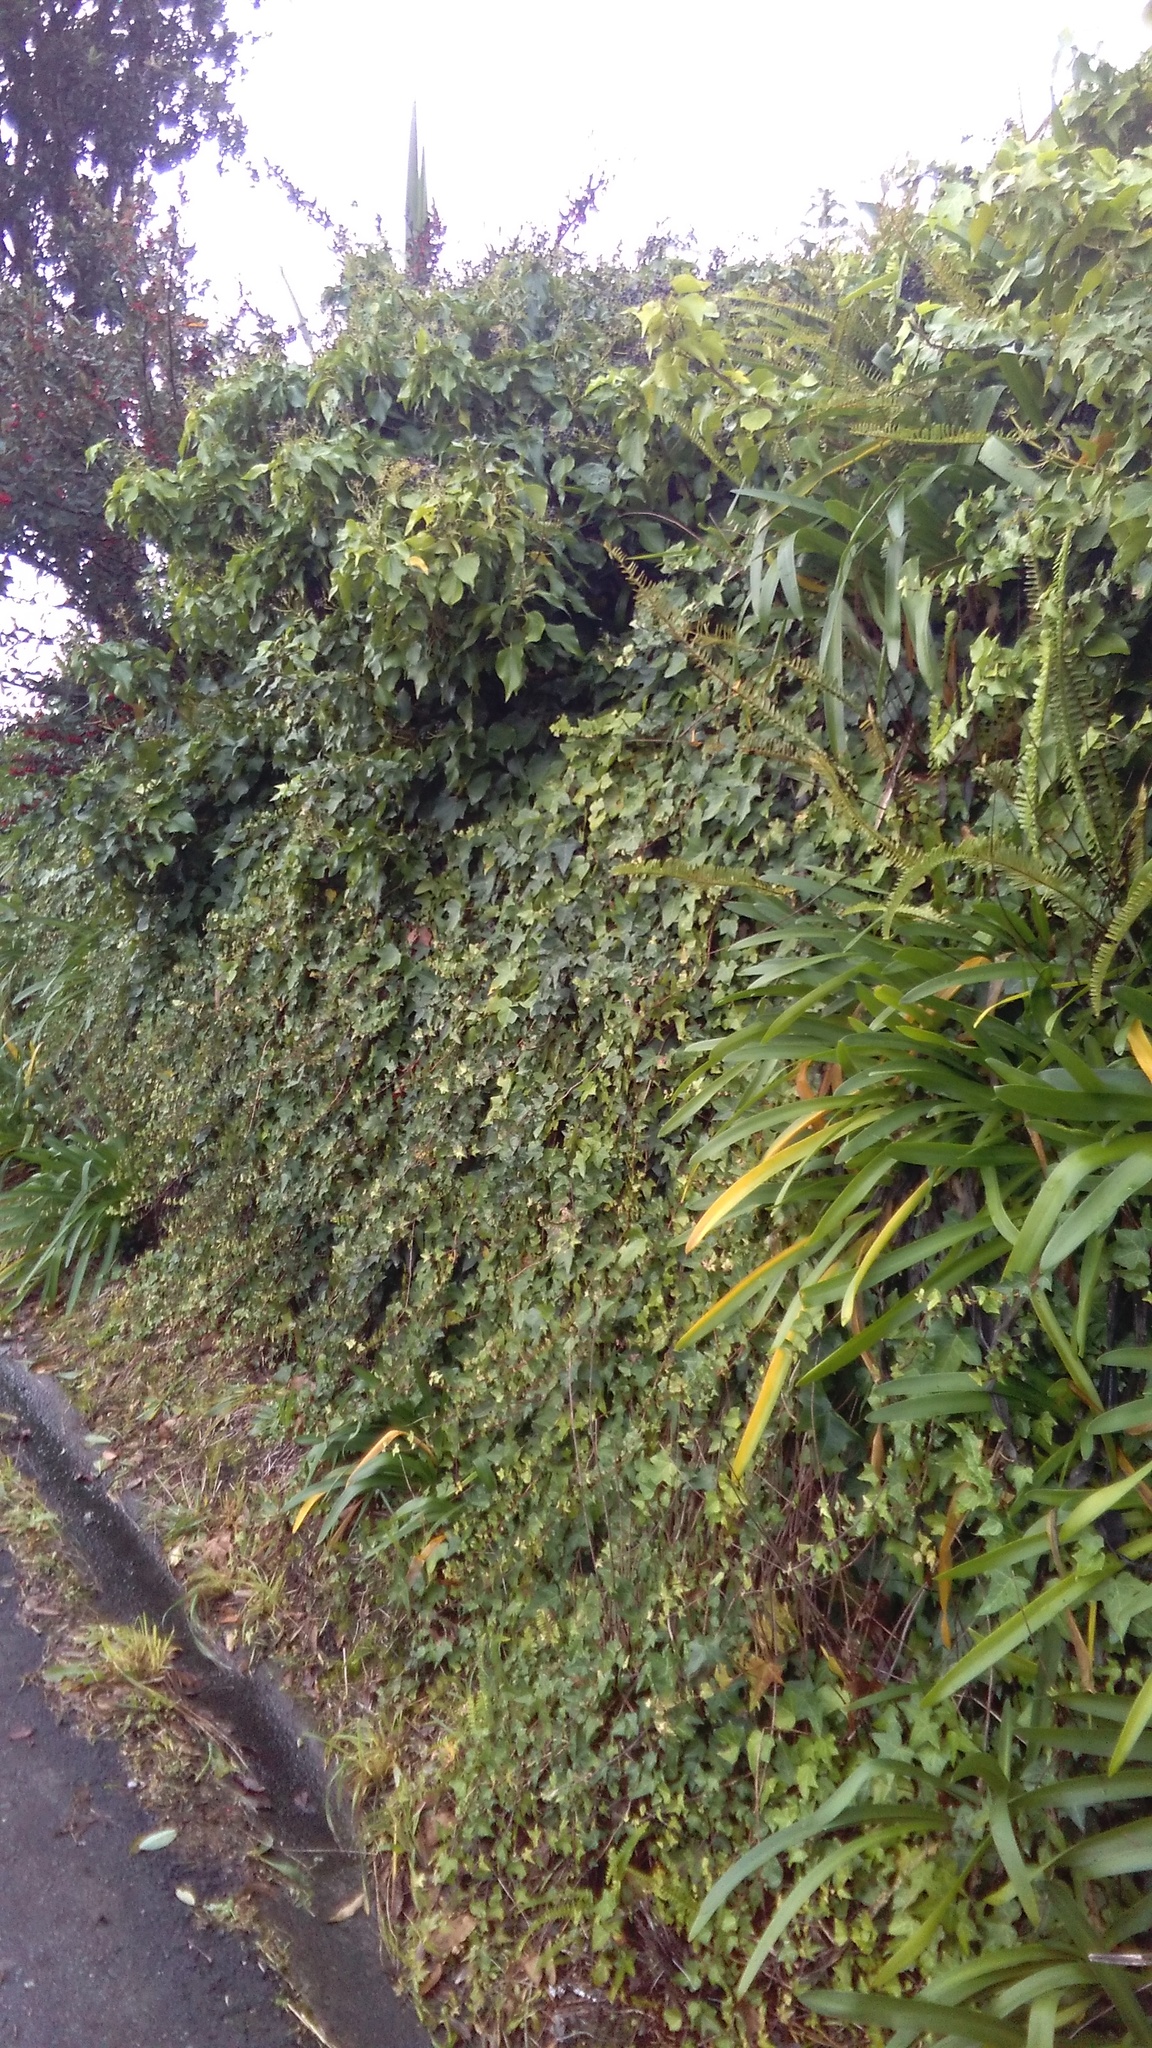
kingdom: Plantae
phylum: Tracheophyta
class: Polypodiopsida
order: Polypodiales
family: Nephrolepidaceae
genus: Nephrolepis
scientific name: Nephrolepis cordifolia
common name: Narrow swordfern
